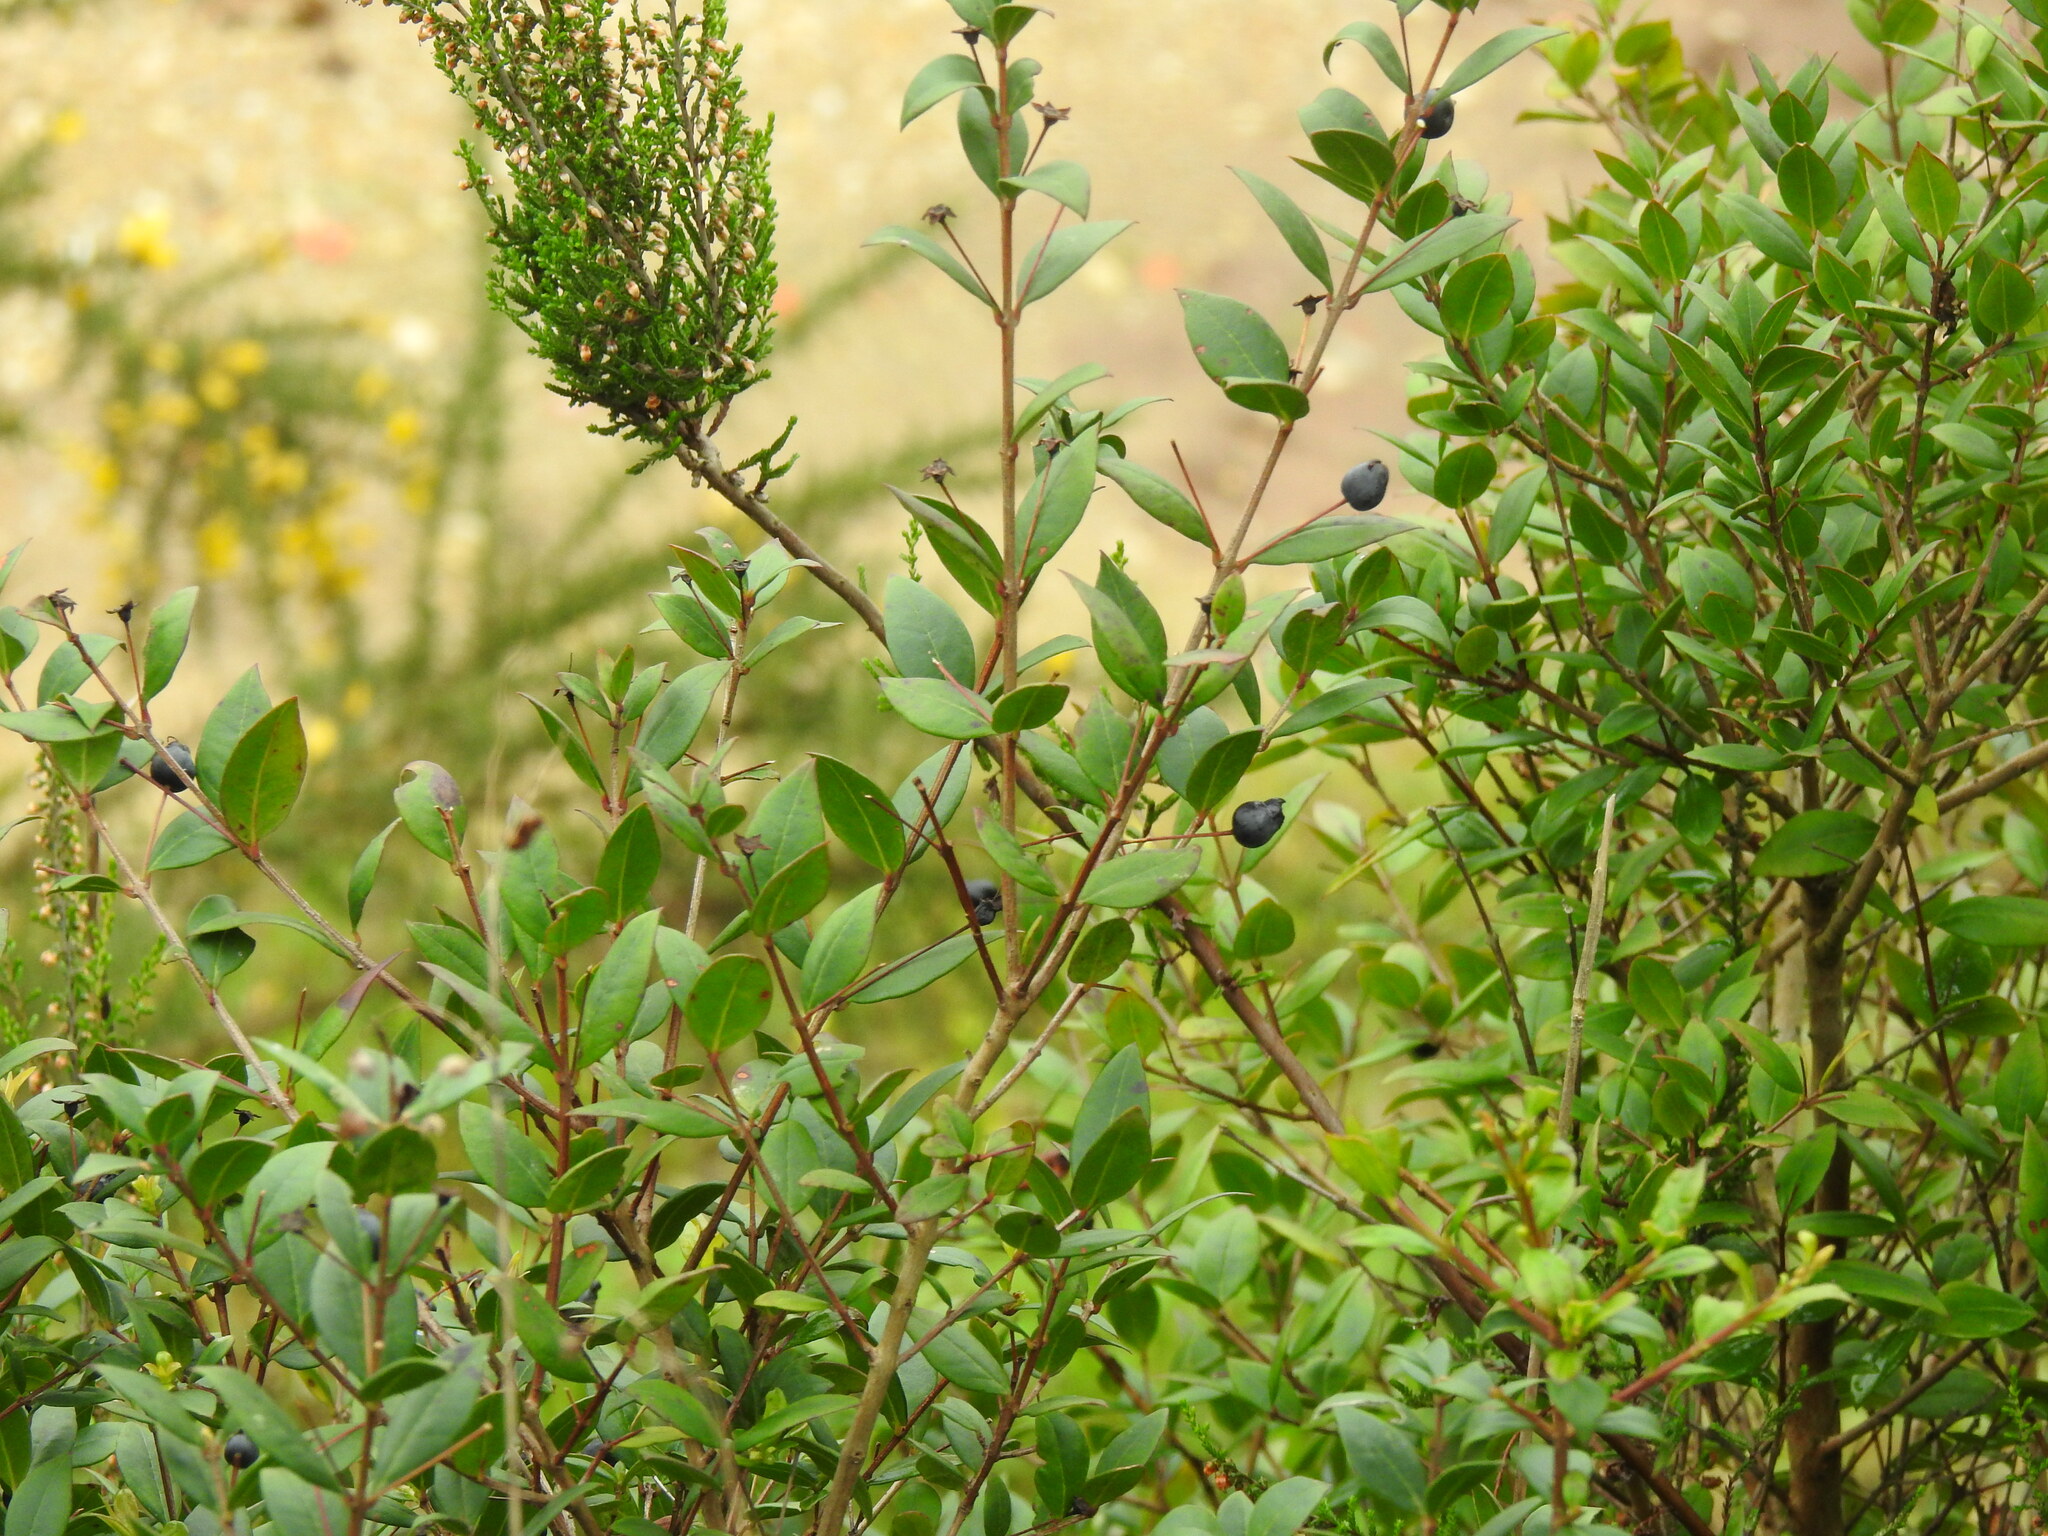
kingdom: Plantae
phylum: Tracheophyta
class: Magnoliopsida
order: Myrtales
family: Myrtaceae
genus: Myrtus
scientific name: Myrtus communis
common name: Myrtle
